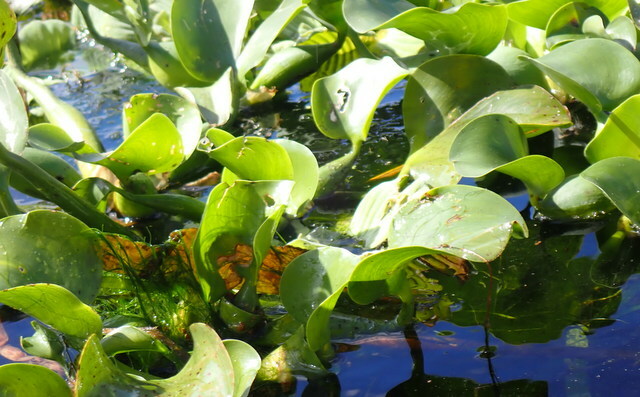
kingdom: Plantae
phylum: Tracheophyta
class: Liliopsida
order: Commelinales
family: Pontederiaceae
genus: Pontederia
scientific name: Pontederia crassipes
